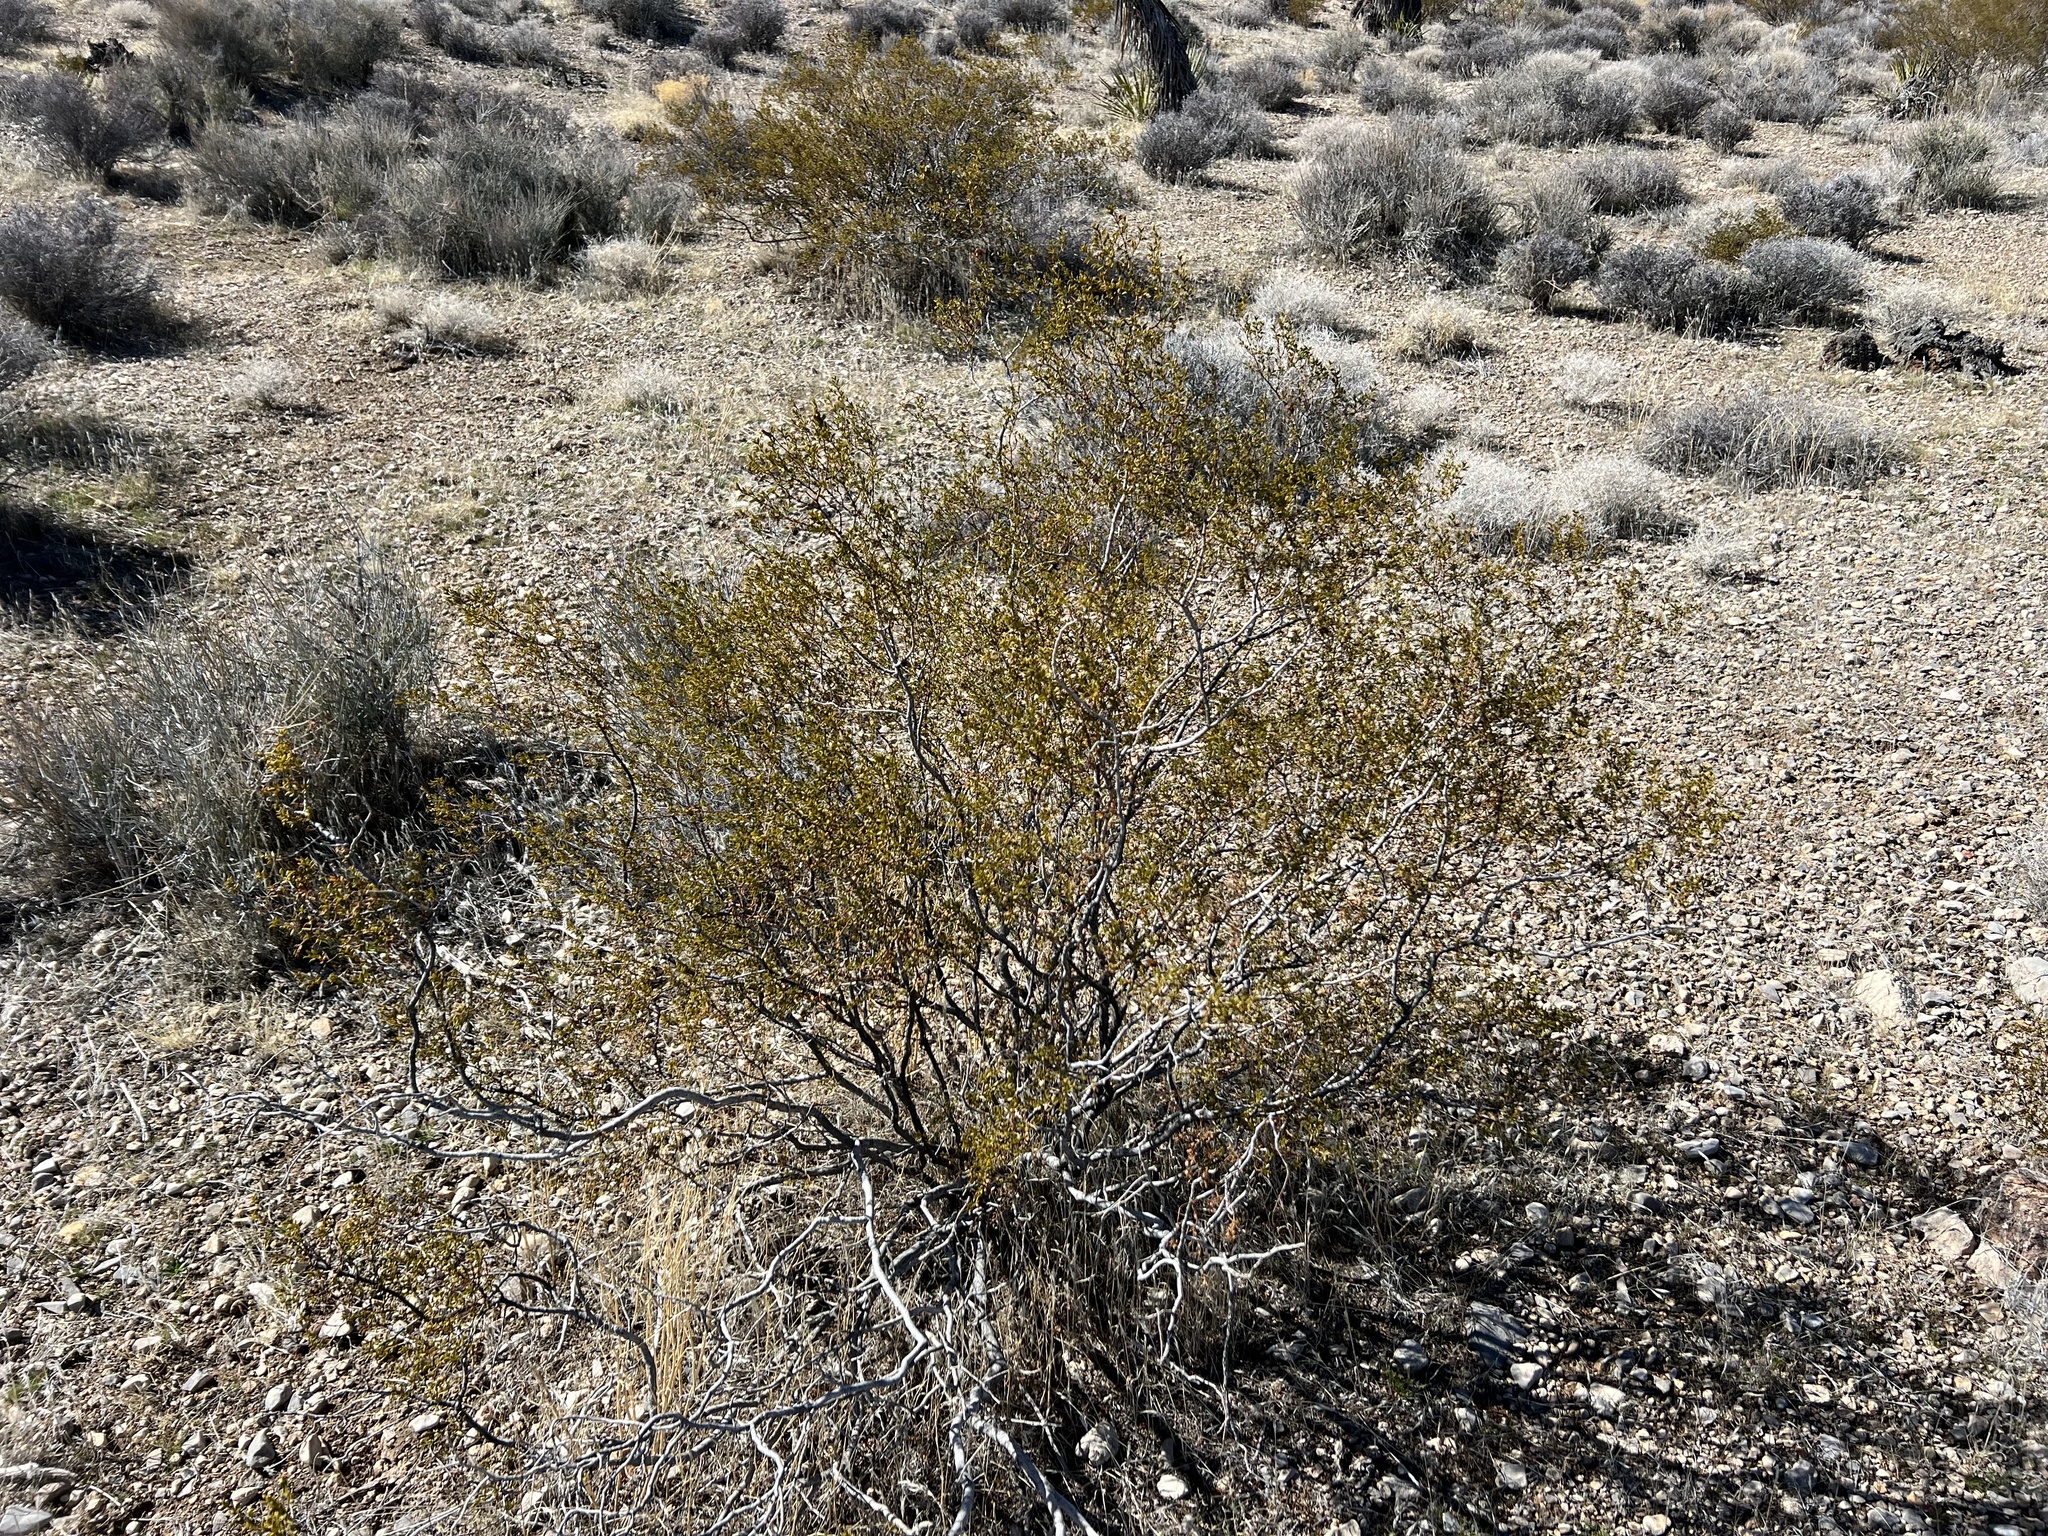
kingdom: Plantae
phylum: Tracheophyta
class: Magnoliopsida
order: Zygophyllales
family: Zygophyllaceae
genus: Larrea
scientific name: Larrea tridentata
